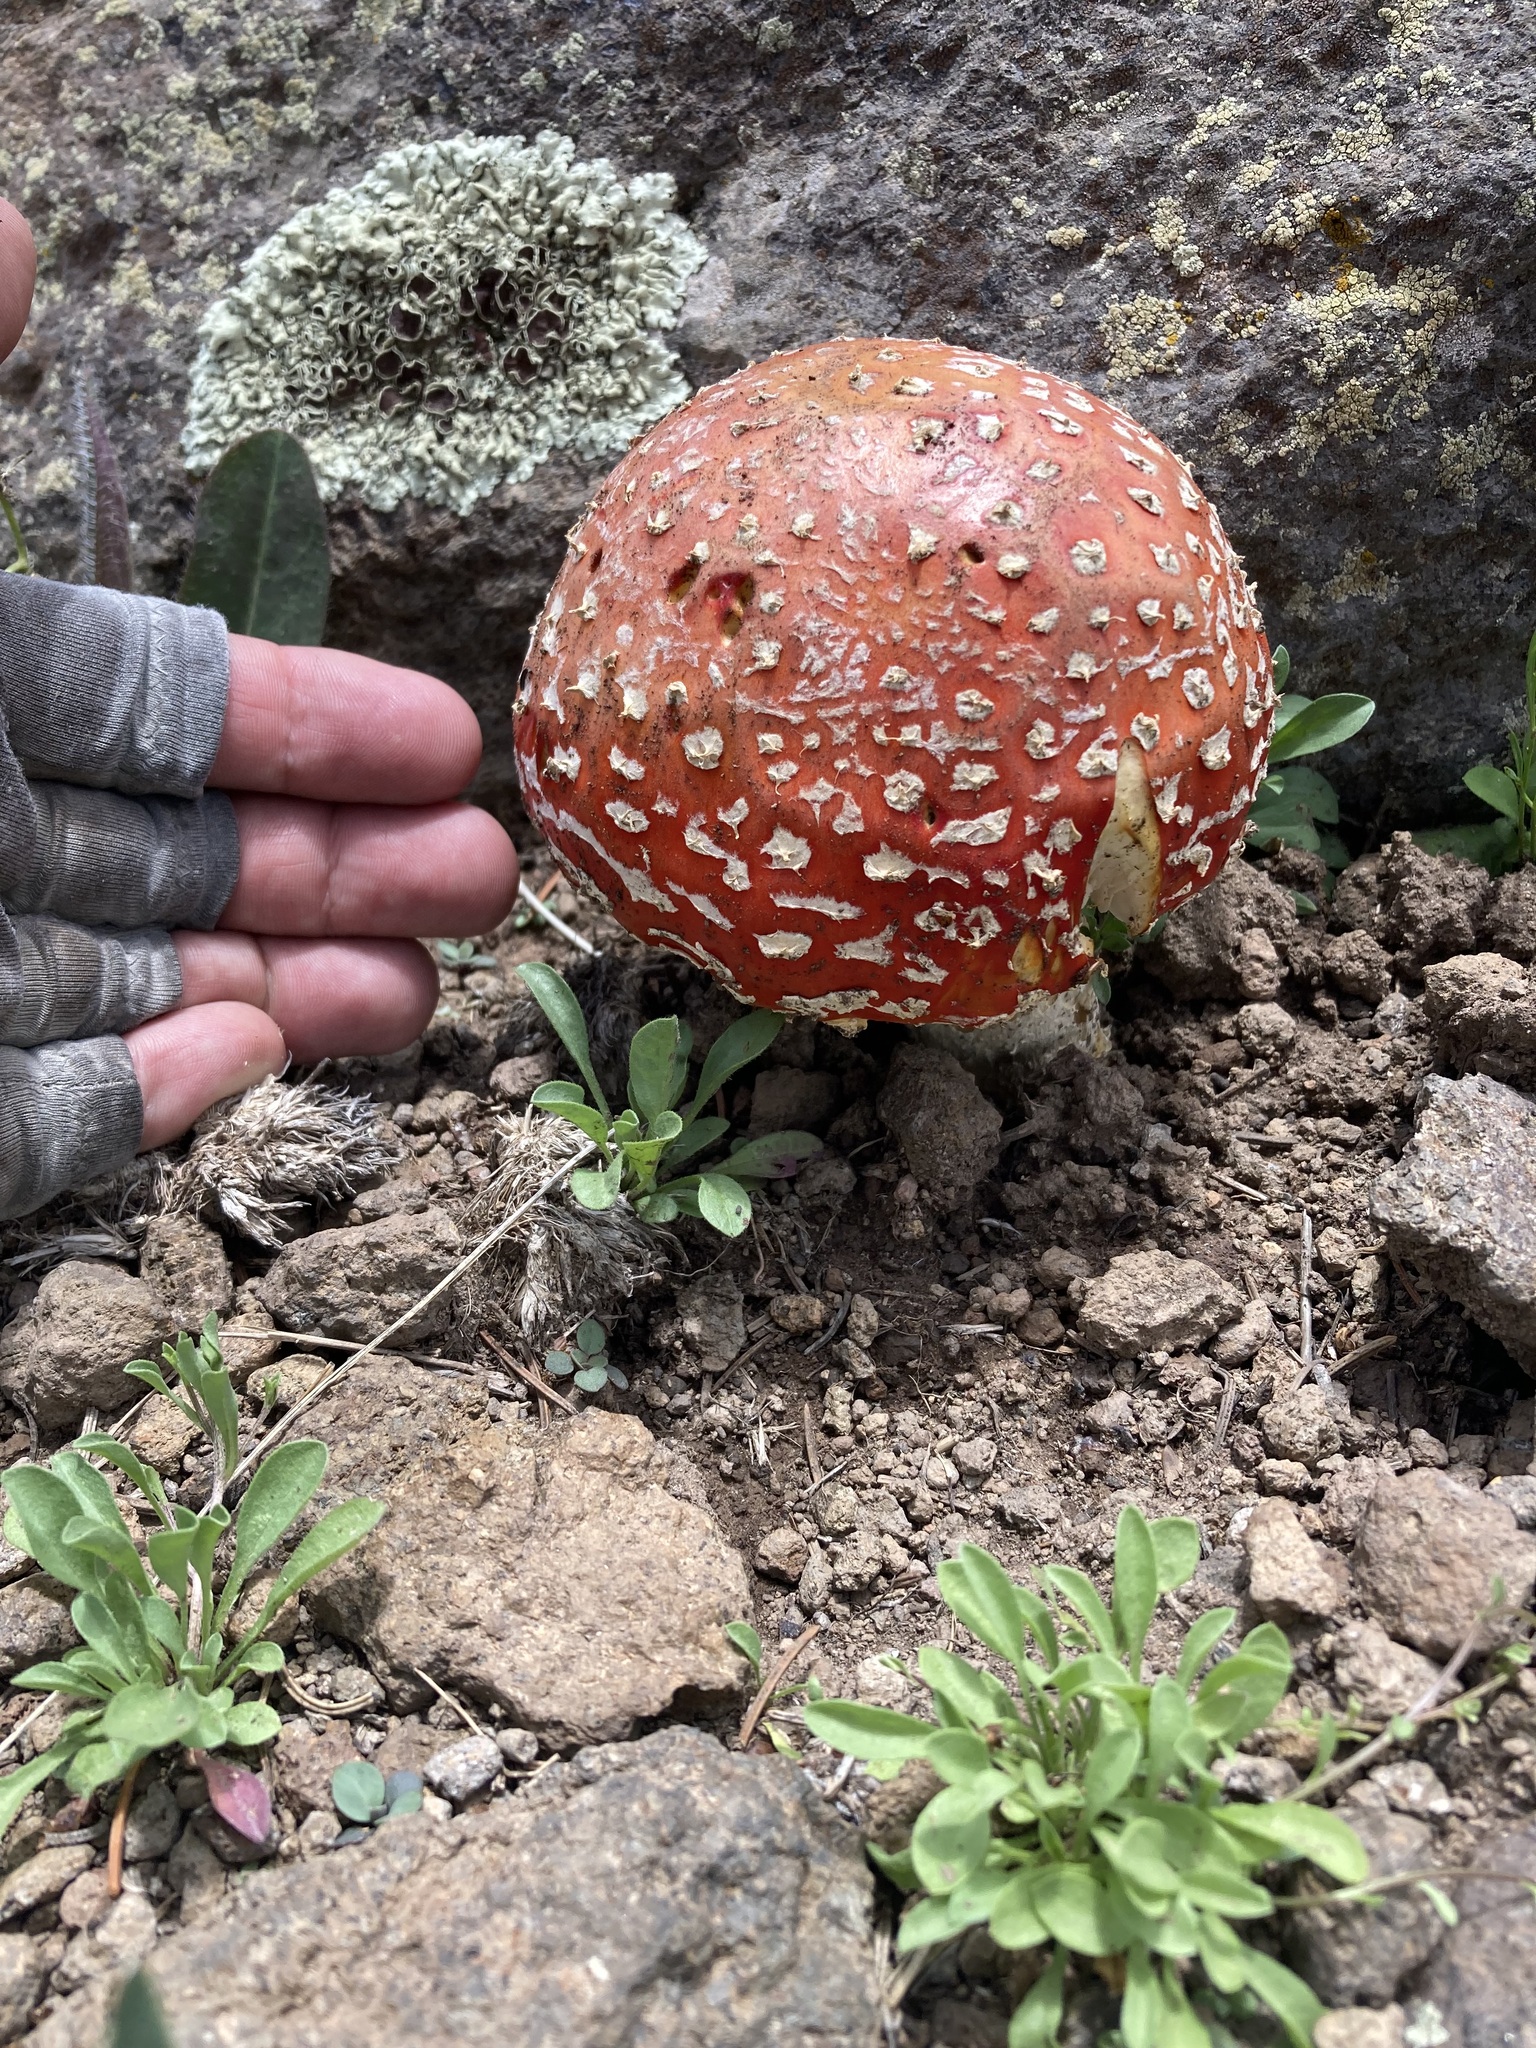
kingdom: Fungi
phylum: Basidiomycota
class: Agaricomycetes
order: Agaricales
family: Amanitaceae
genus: Amanita
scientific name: Amanita muscaria
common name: Fly agaric
